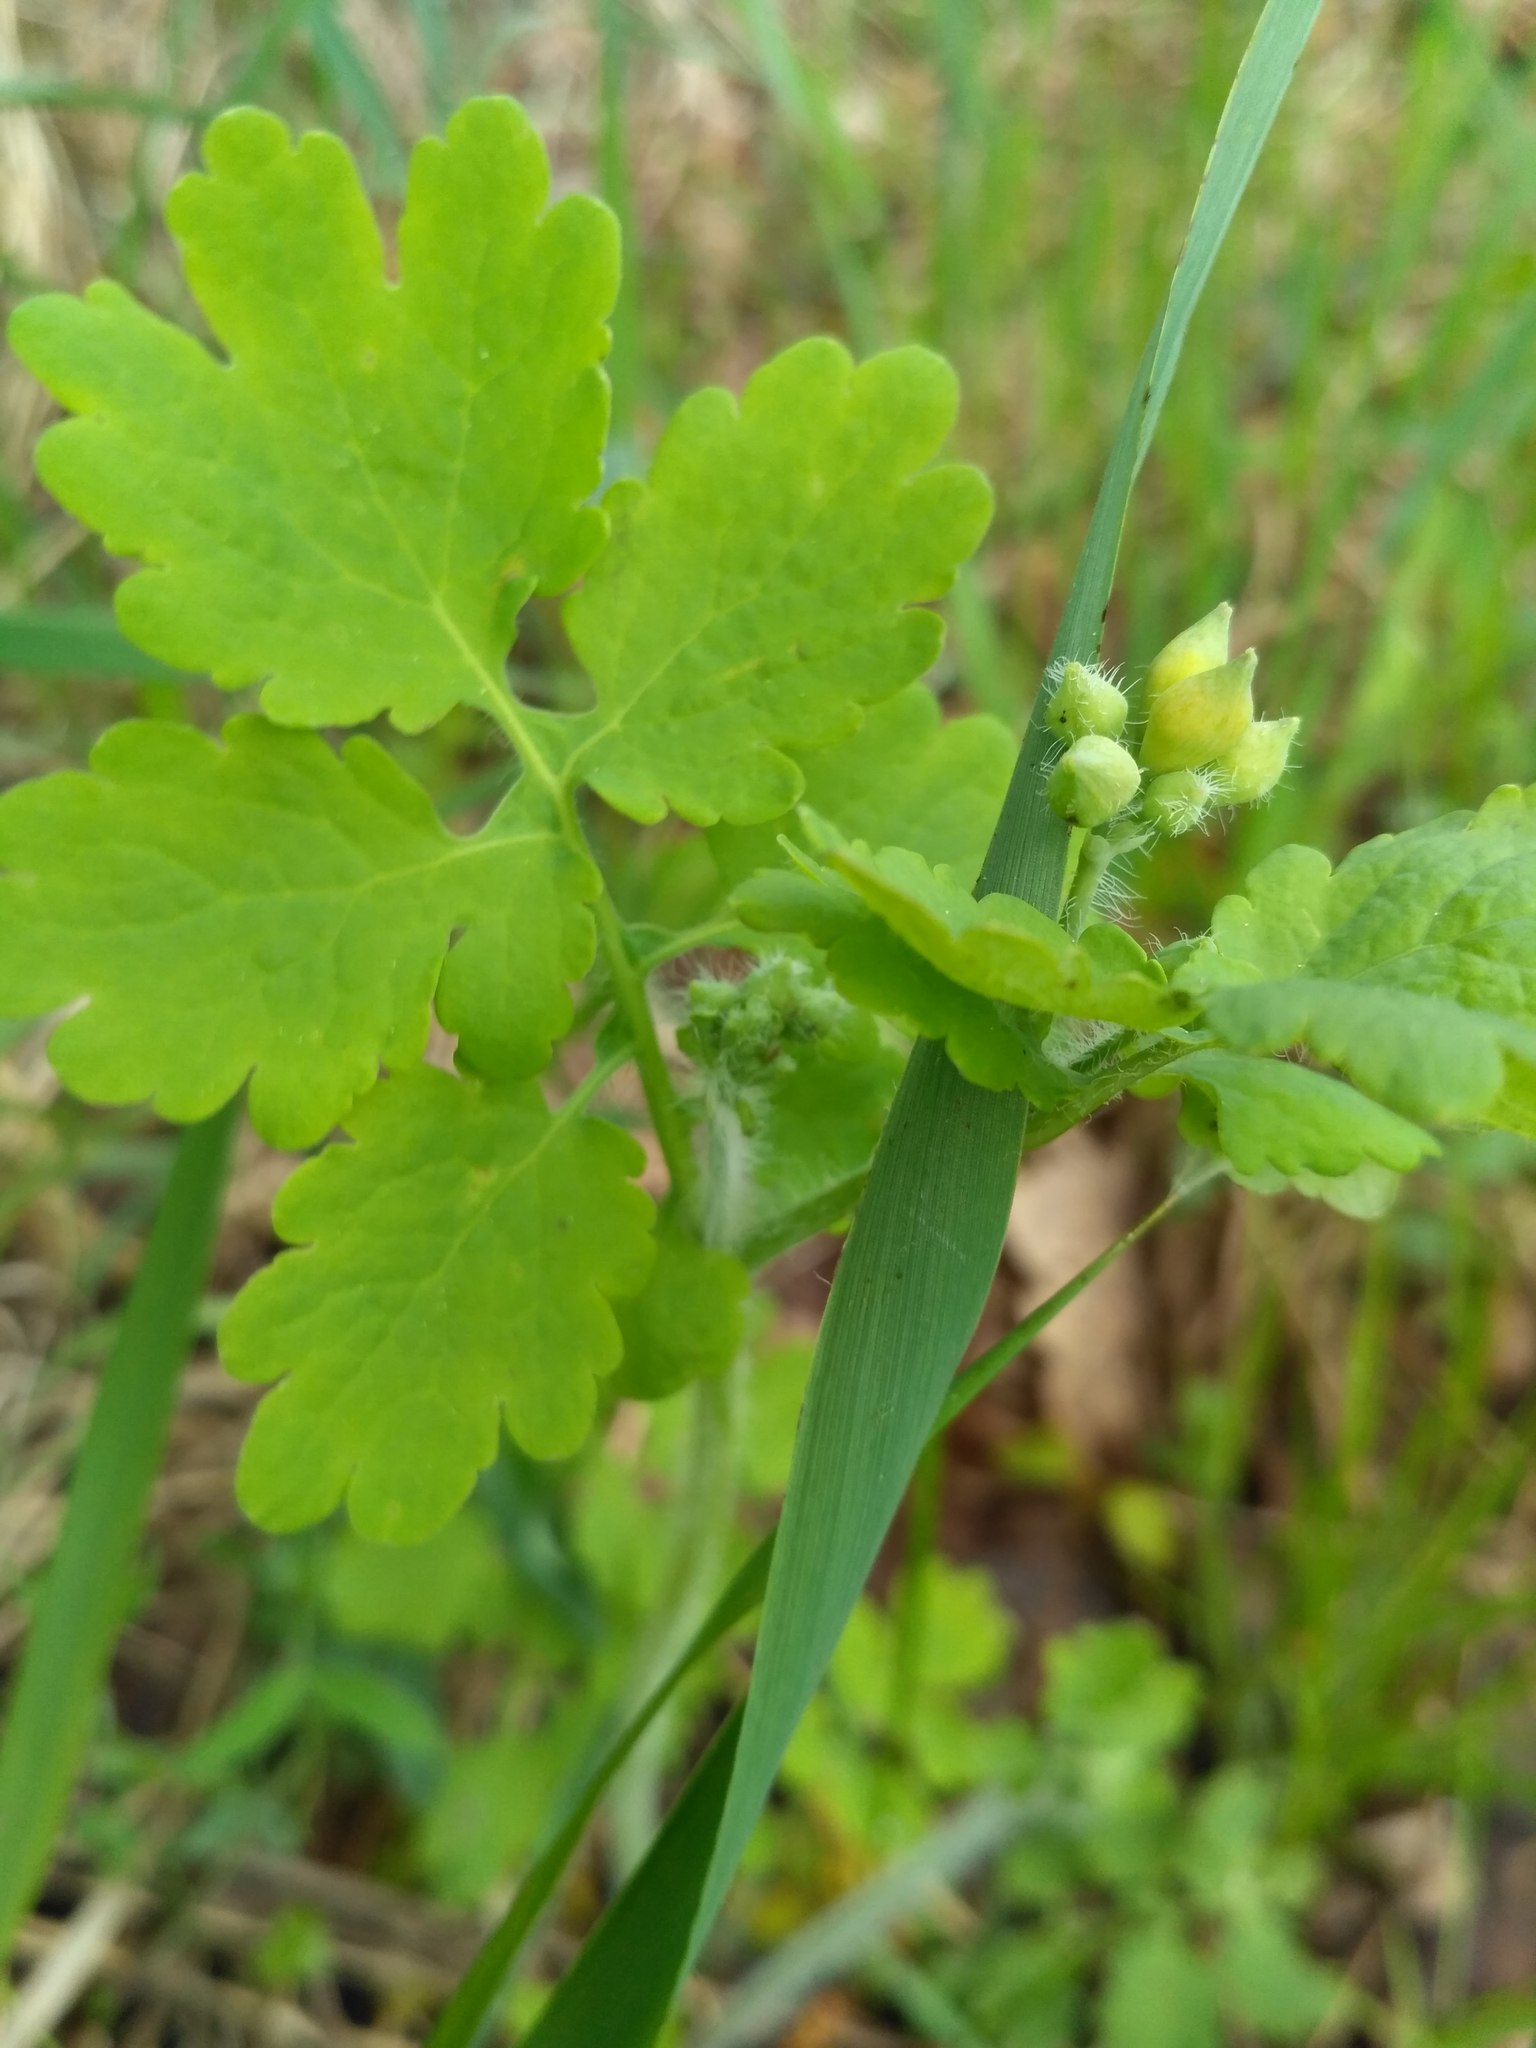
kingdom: Plantae
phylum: Tracheophyta
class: Magnoliopsida
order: Ranunculales
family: Papaveraceae
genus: Chelidonium
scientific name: Chelidonium majus
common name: Greater celandine
